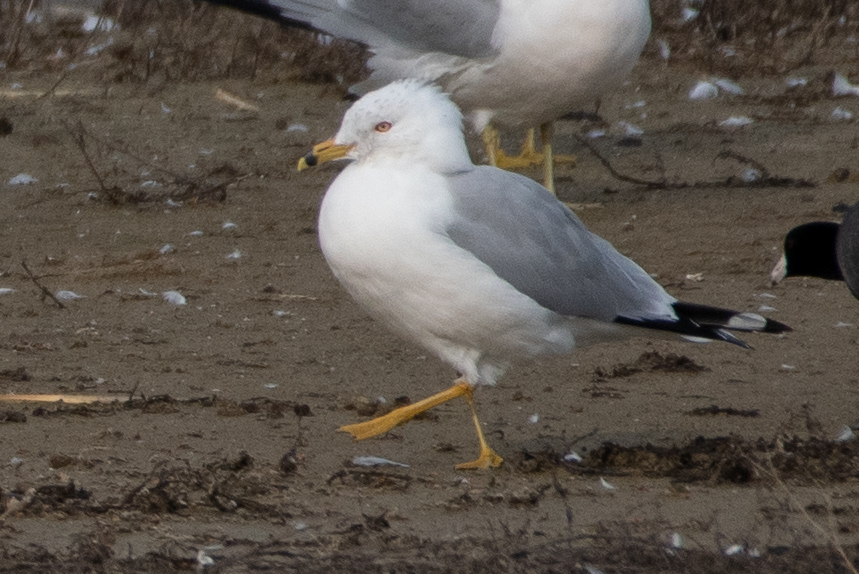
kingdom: Animalia
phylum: Chordata
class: Aves
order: Charadriiformes
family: Laridae
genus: Larus
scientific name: Larus delawarensis
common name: Ring-billed gull
